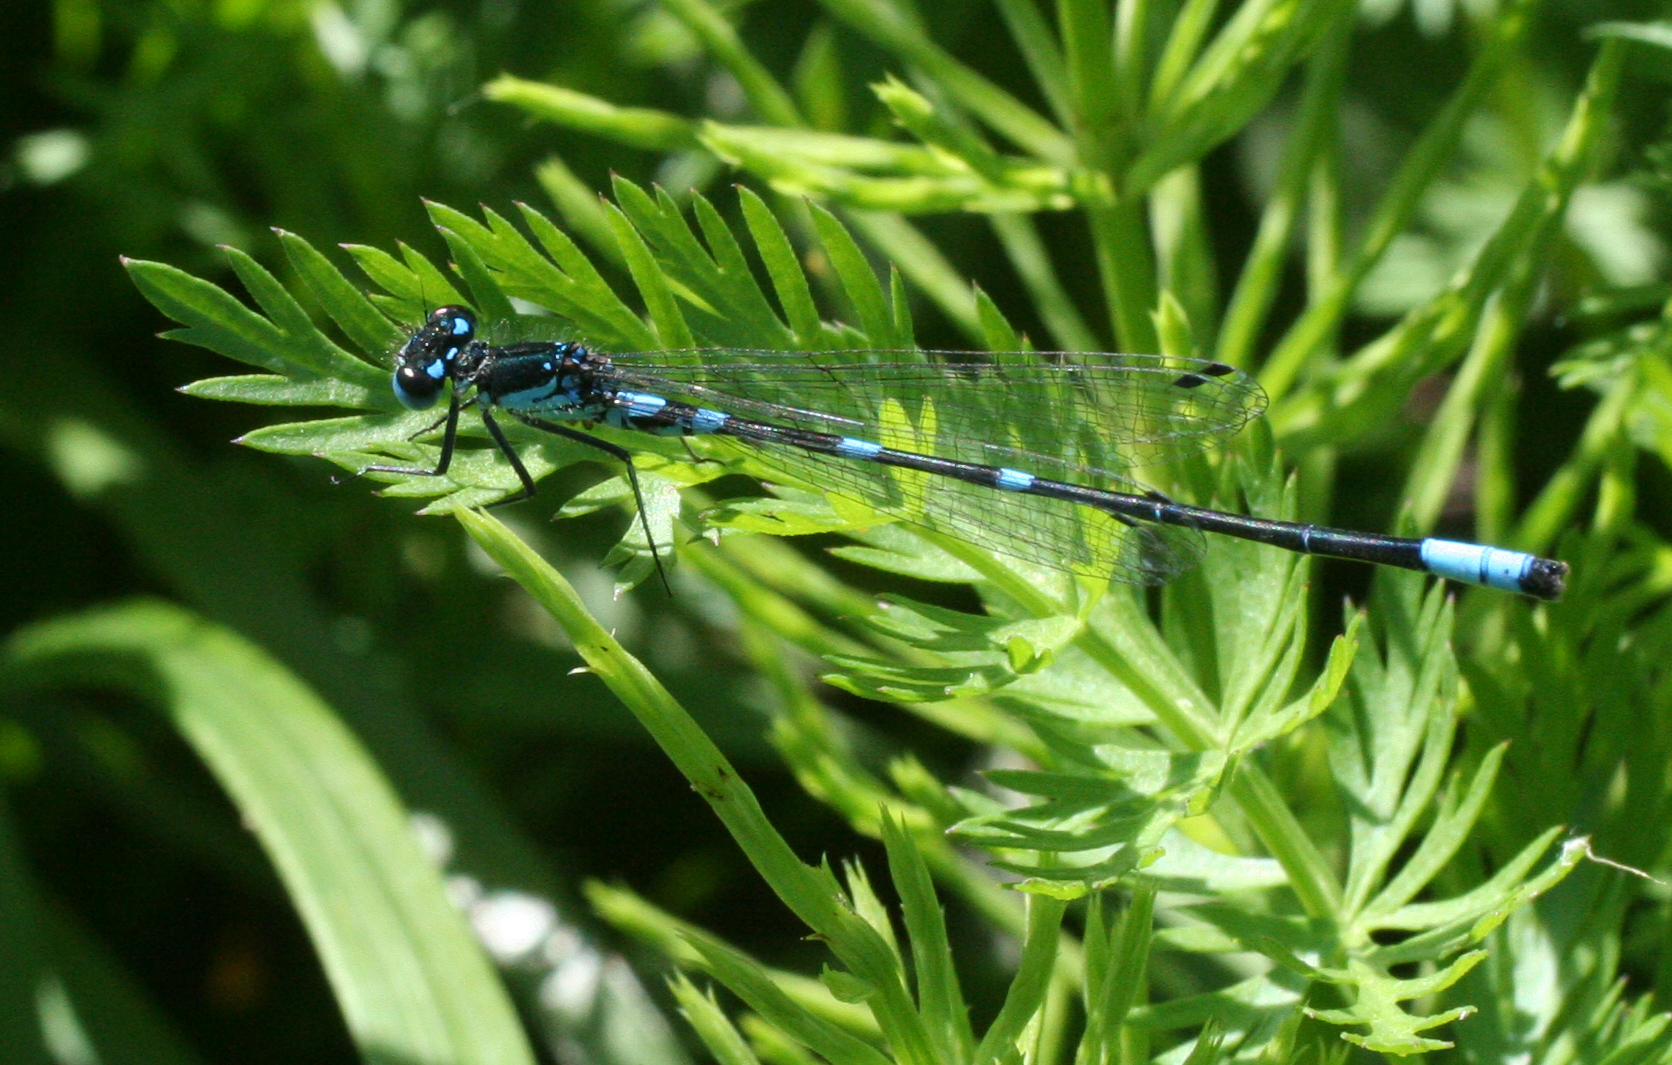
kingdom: Animalia
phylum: Arthropoda
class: Insecta
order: Odonata
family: Coenagrionidae
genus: Coenagrion
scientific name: Coenagrion pulchellum
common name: Variable bluet
